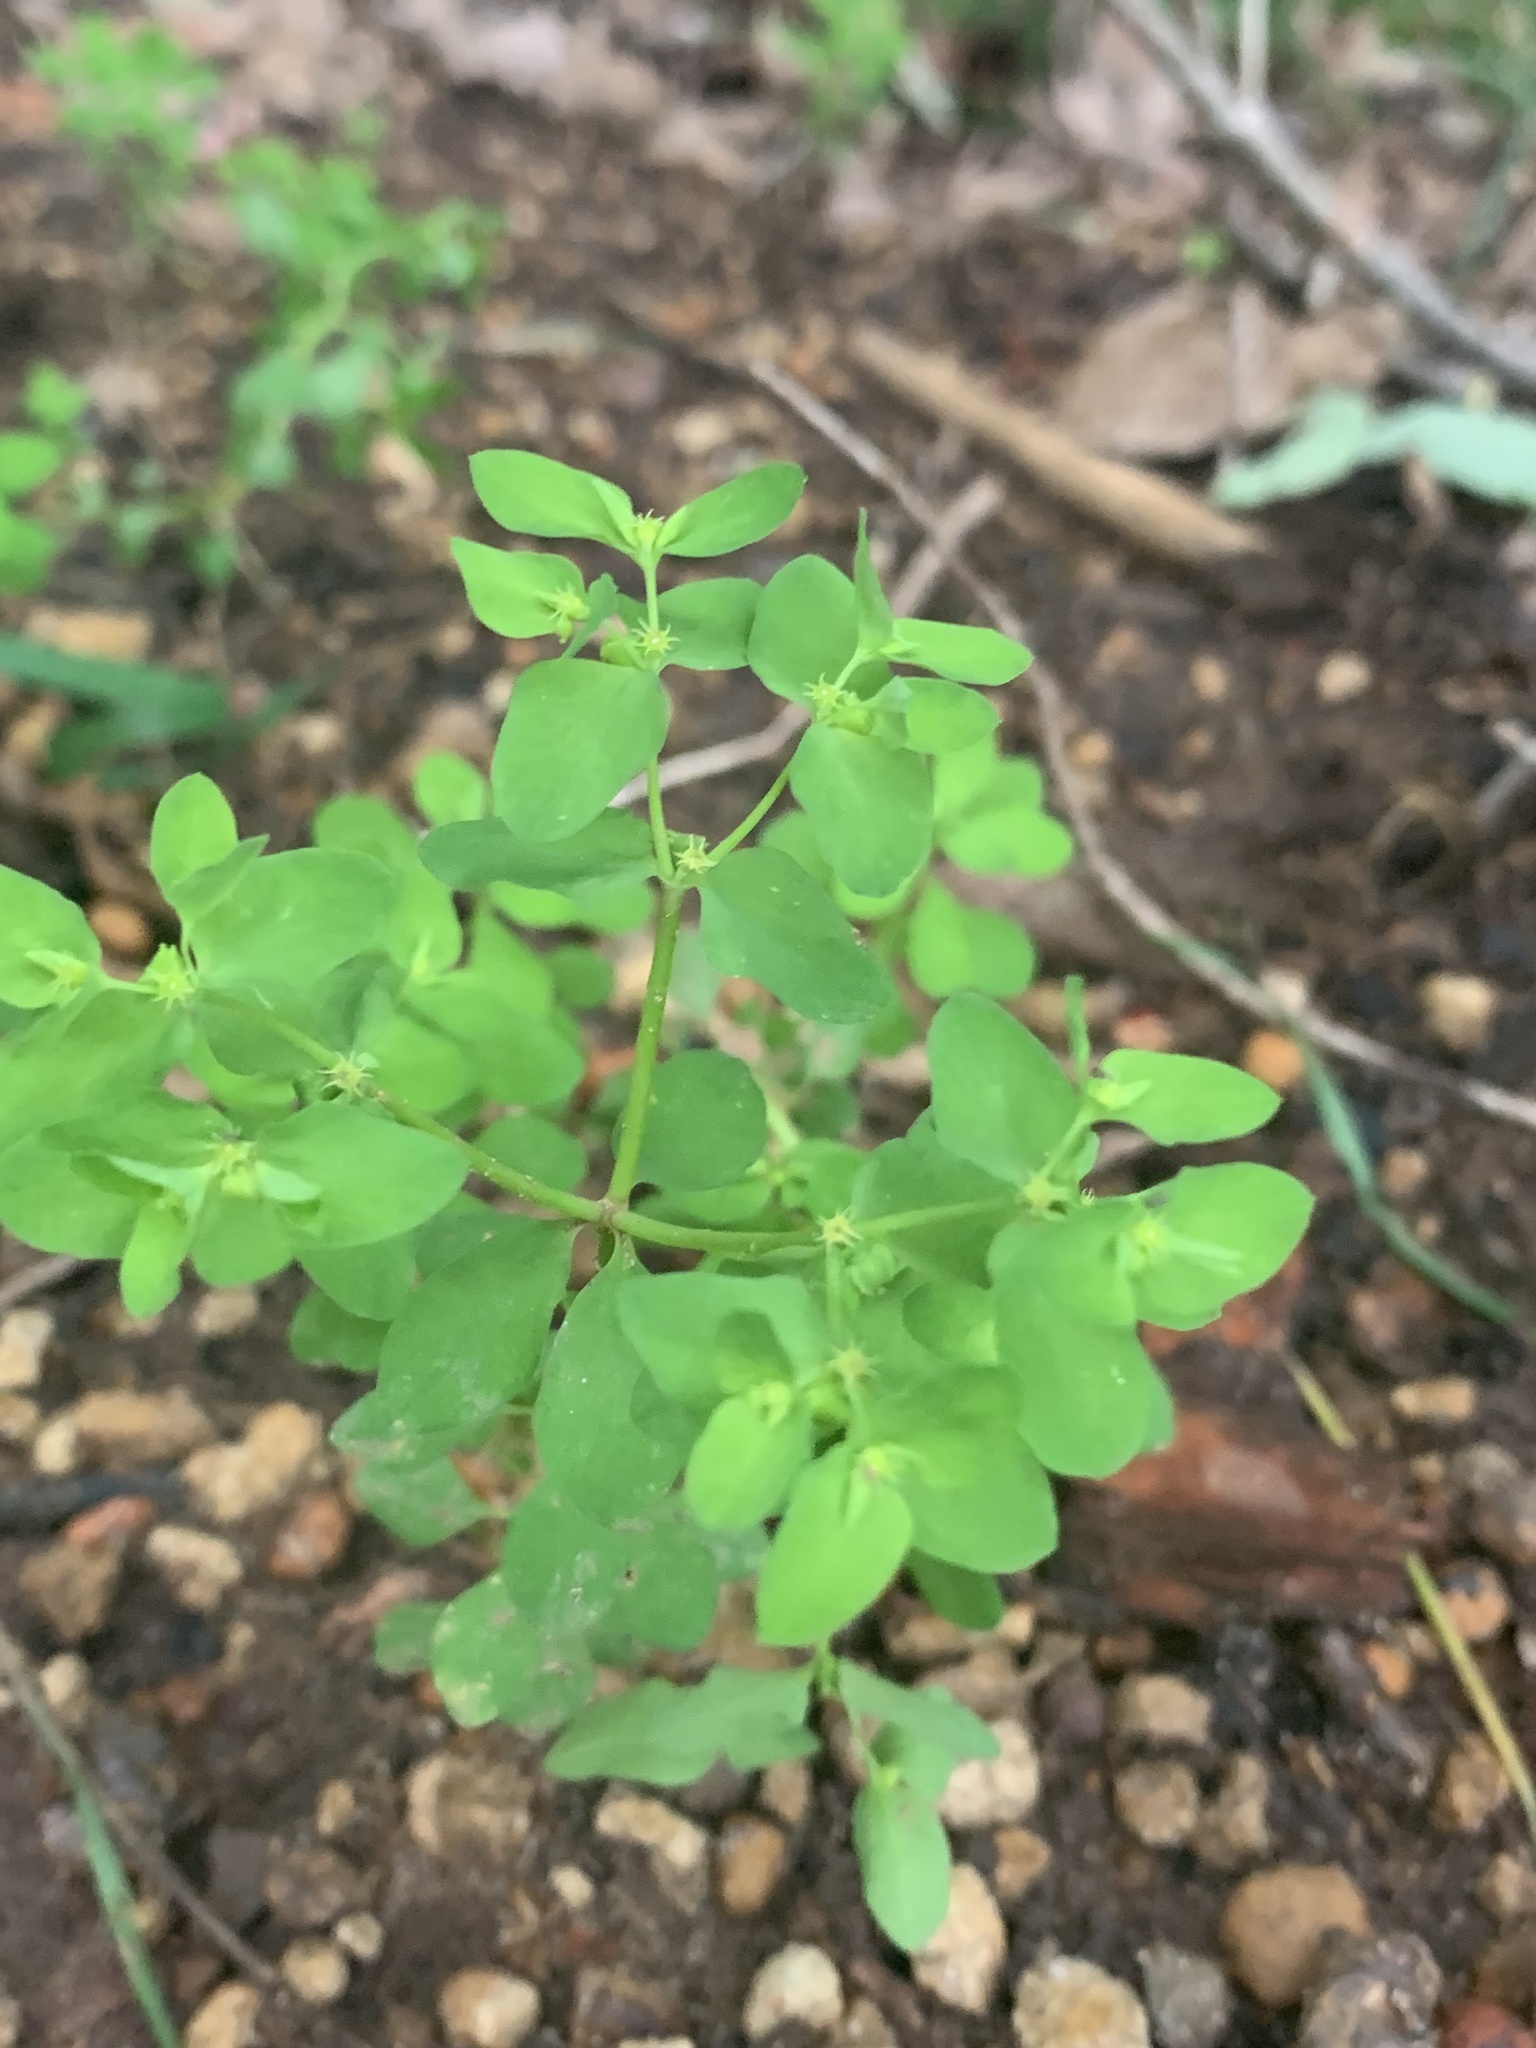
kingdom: Plantae
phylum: Tracheophyta
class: Magnoliopsida
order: Malpighiales
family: Euphorbiaceae
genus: Euphorbia
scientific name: Euphorbia peplus
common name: Petty spurge
